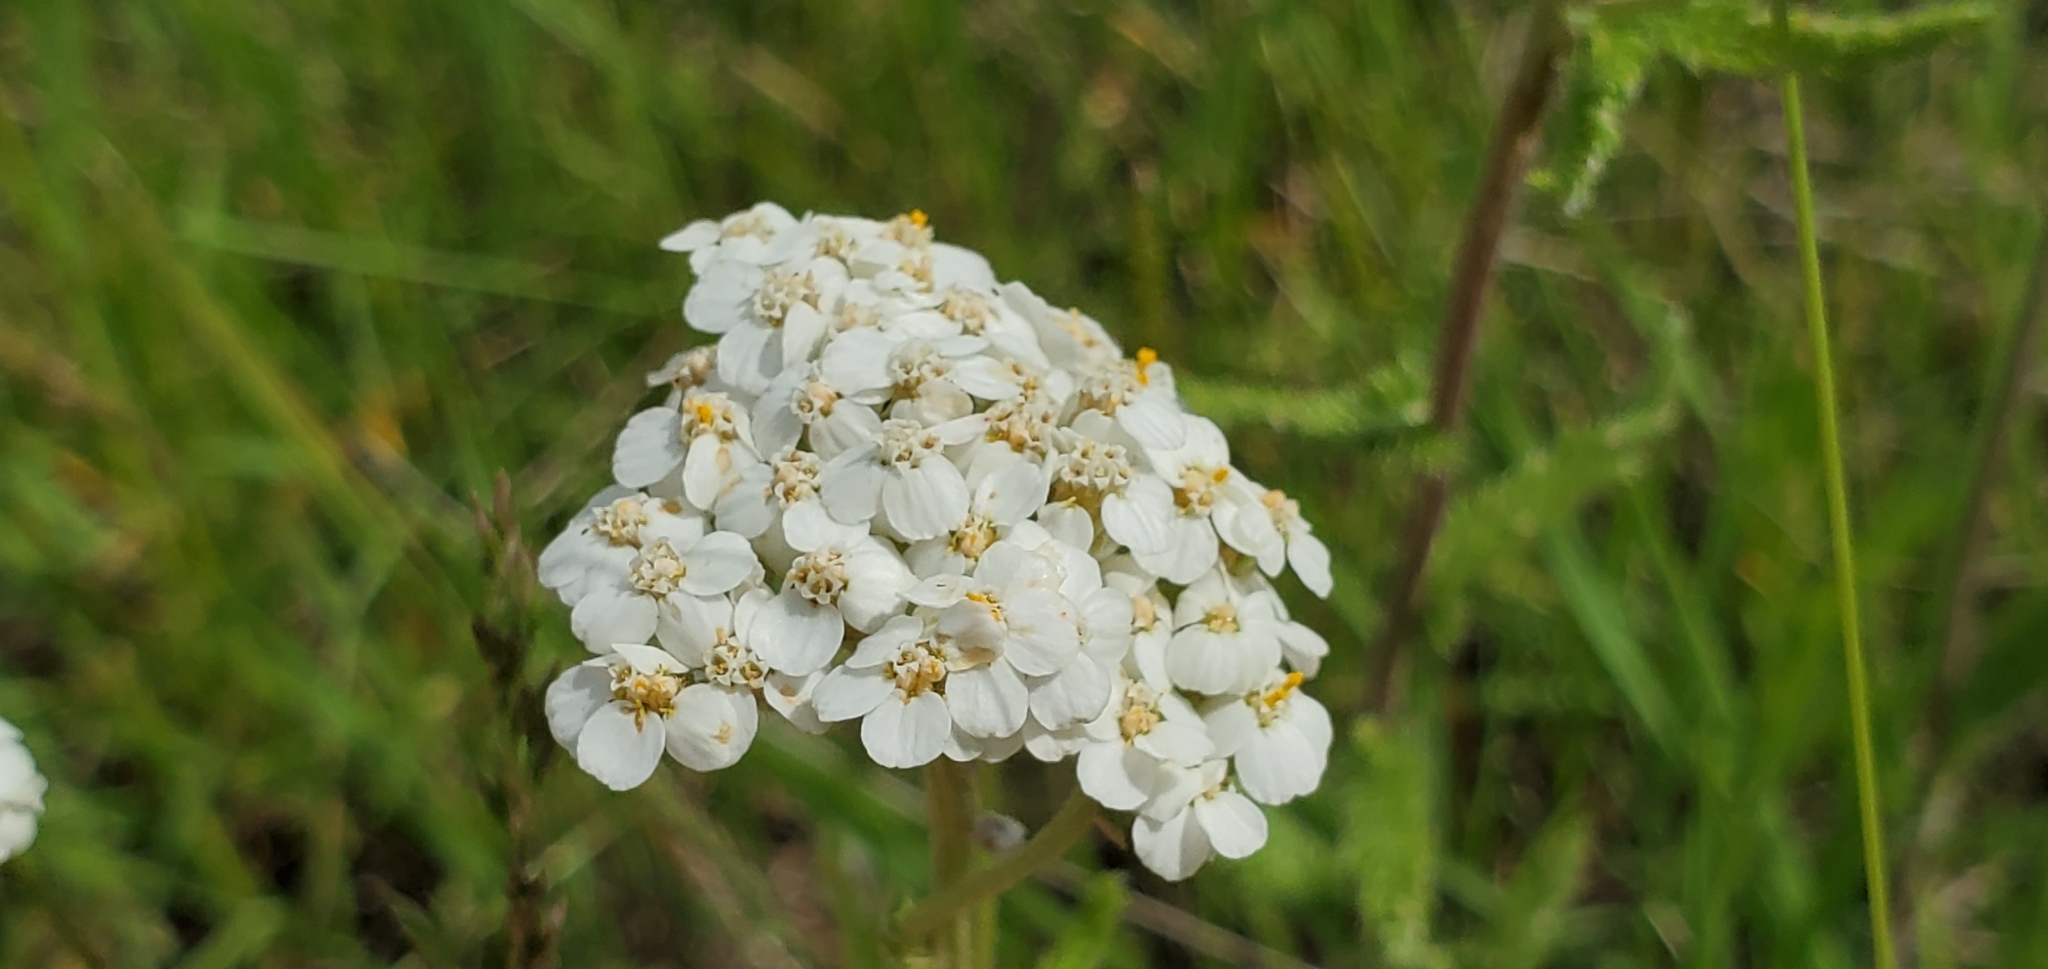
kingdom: Plantae
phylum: Tracheophyta
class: Magnoliopsida
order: Asterales
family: Asteraceae
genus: Achillea
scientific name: Achillea millefolium
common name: Yarrow
